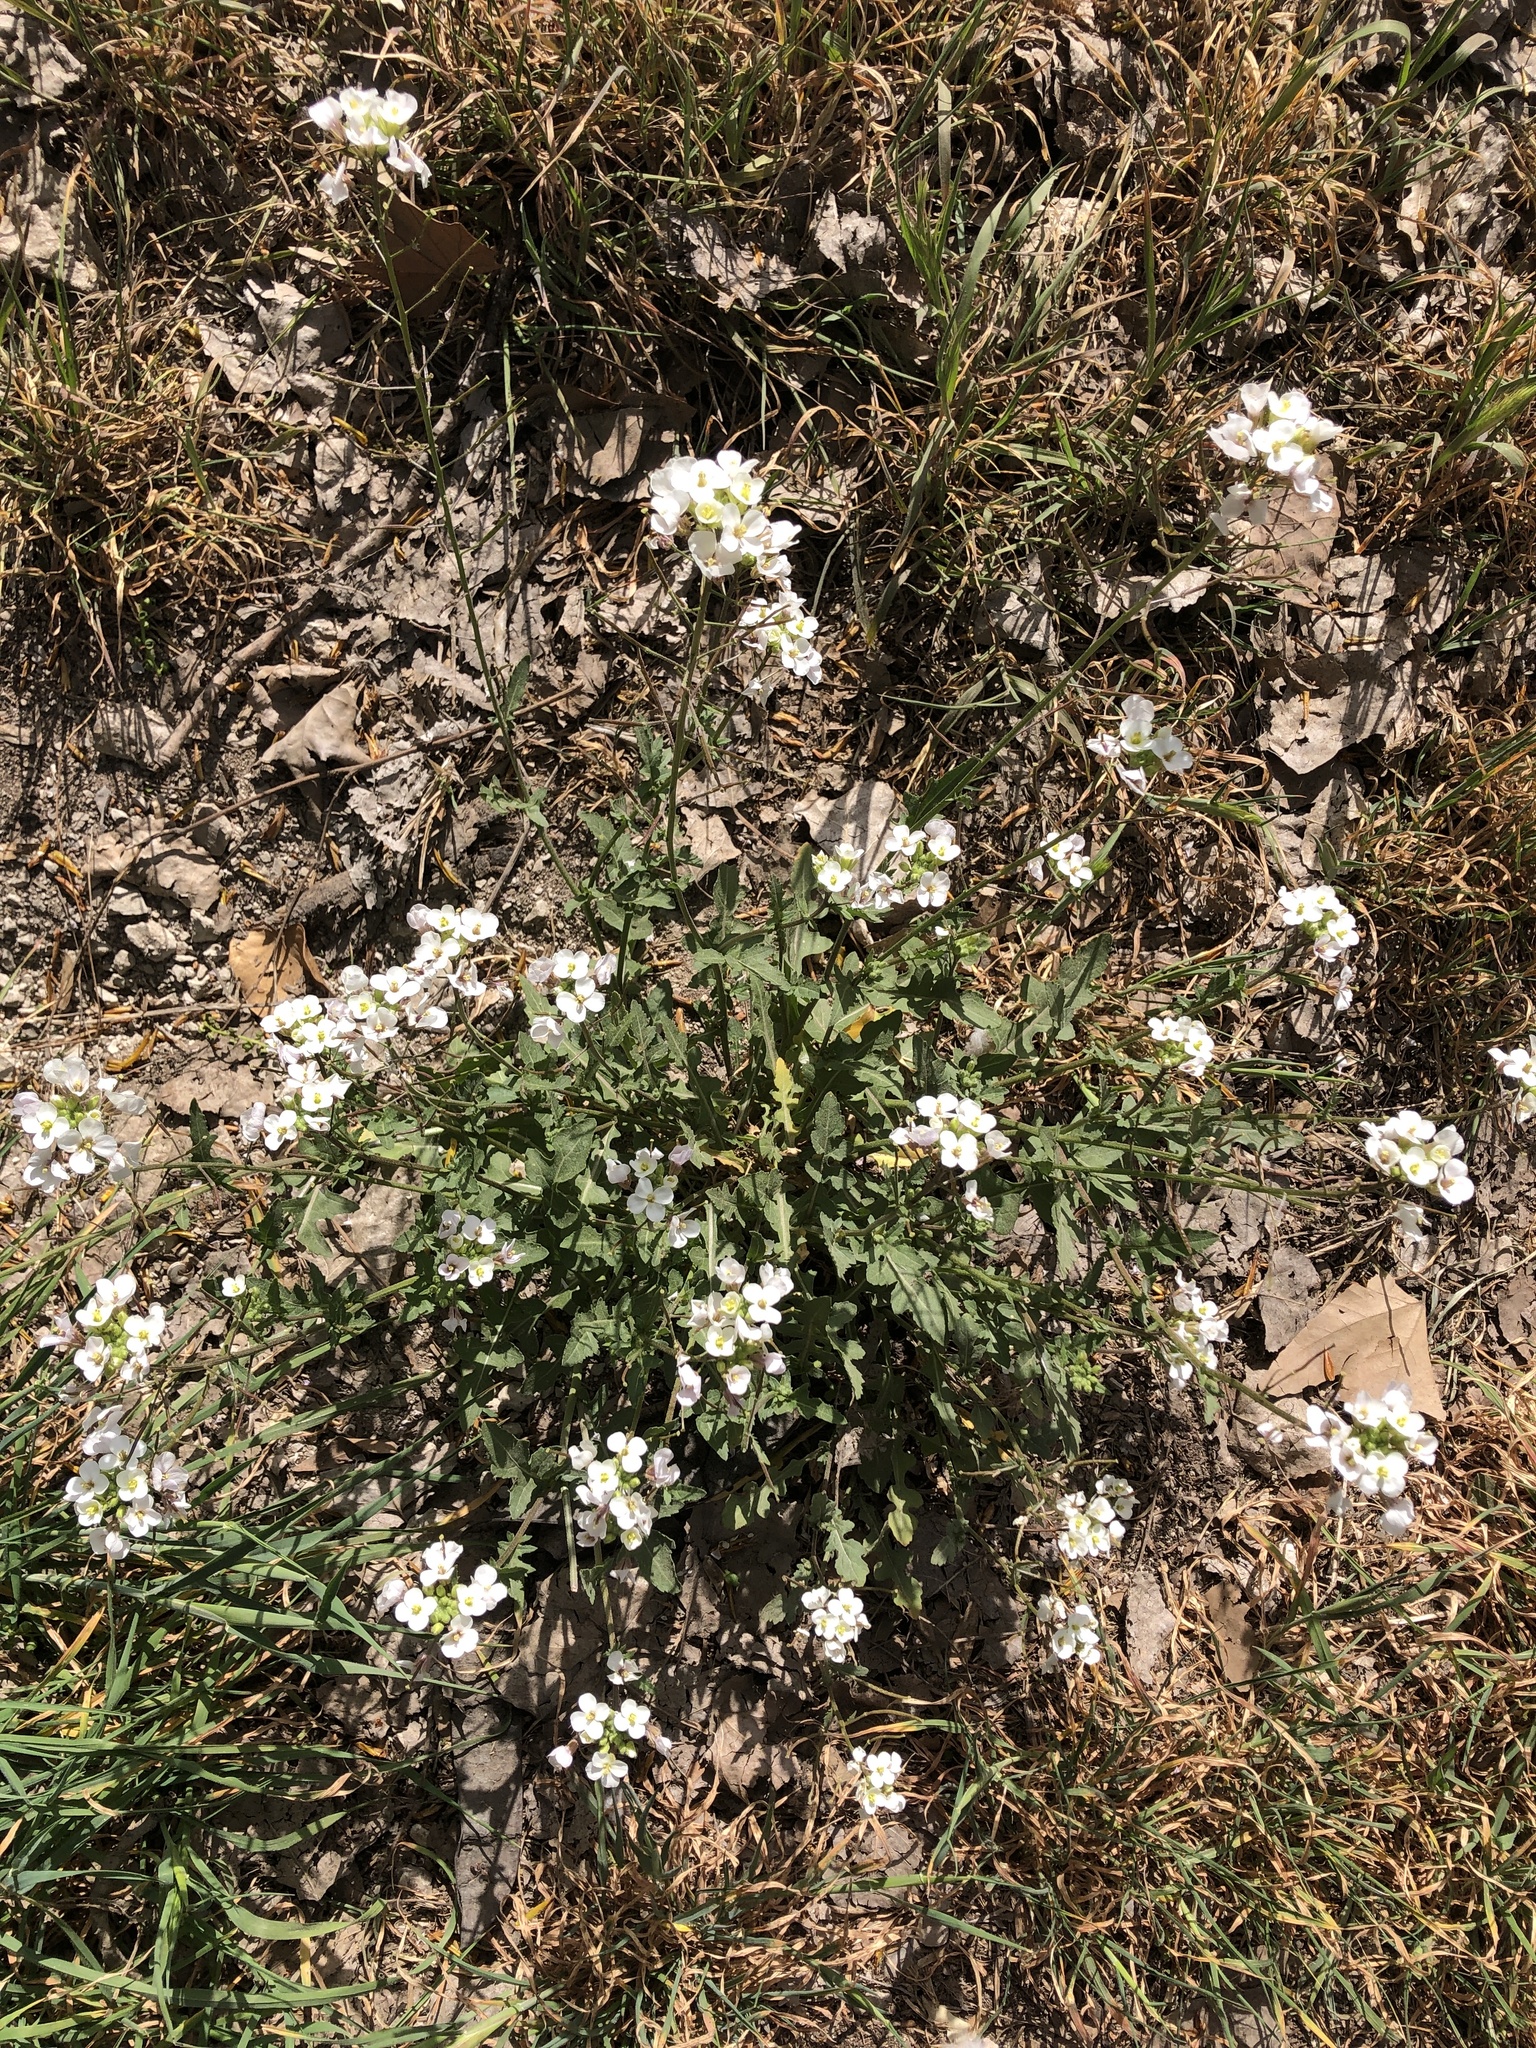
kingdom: Plantae
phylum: Tracheophyta
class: Magnoliopsida
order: Brassicales
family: Brassicaceae
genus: Diplotaxis
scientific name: Diplotaxis erucoides
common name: White rocket
